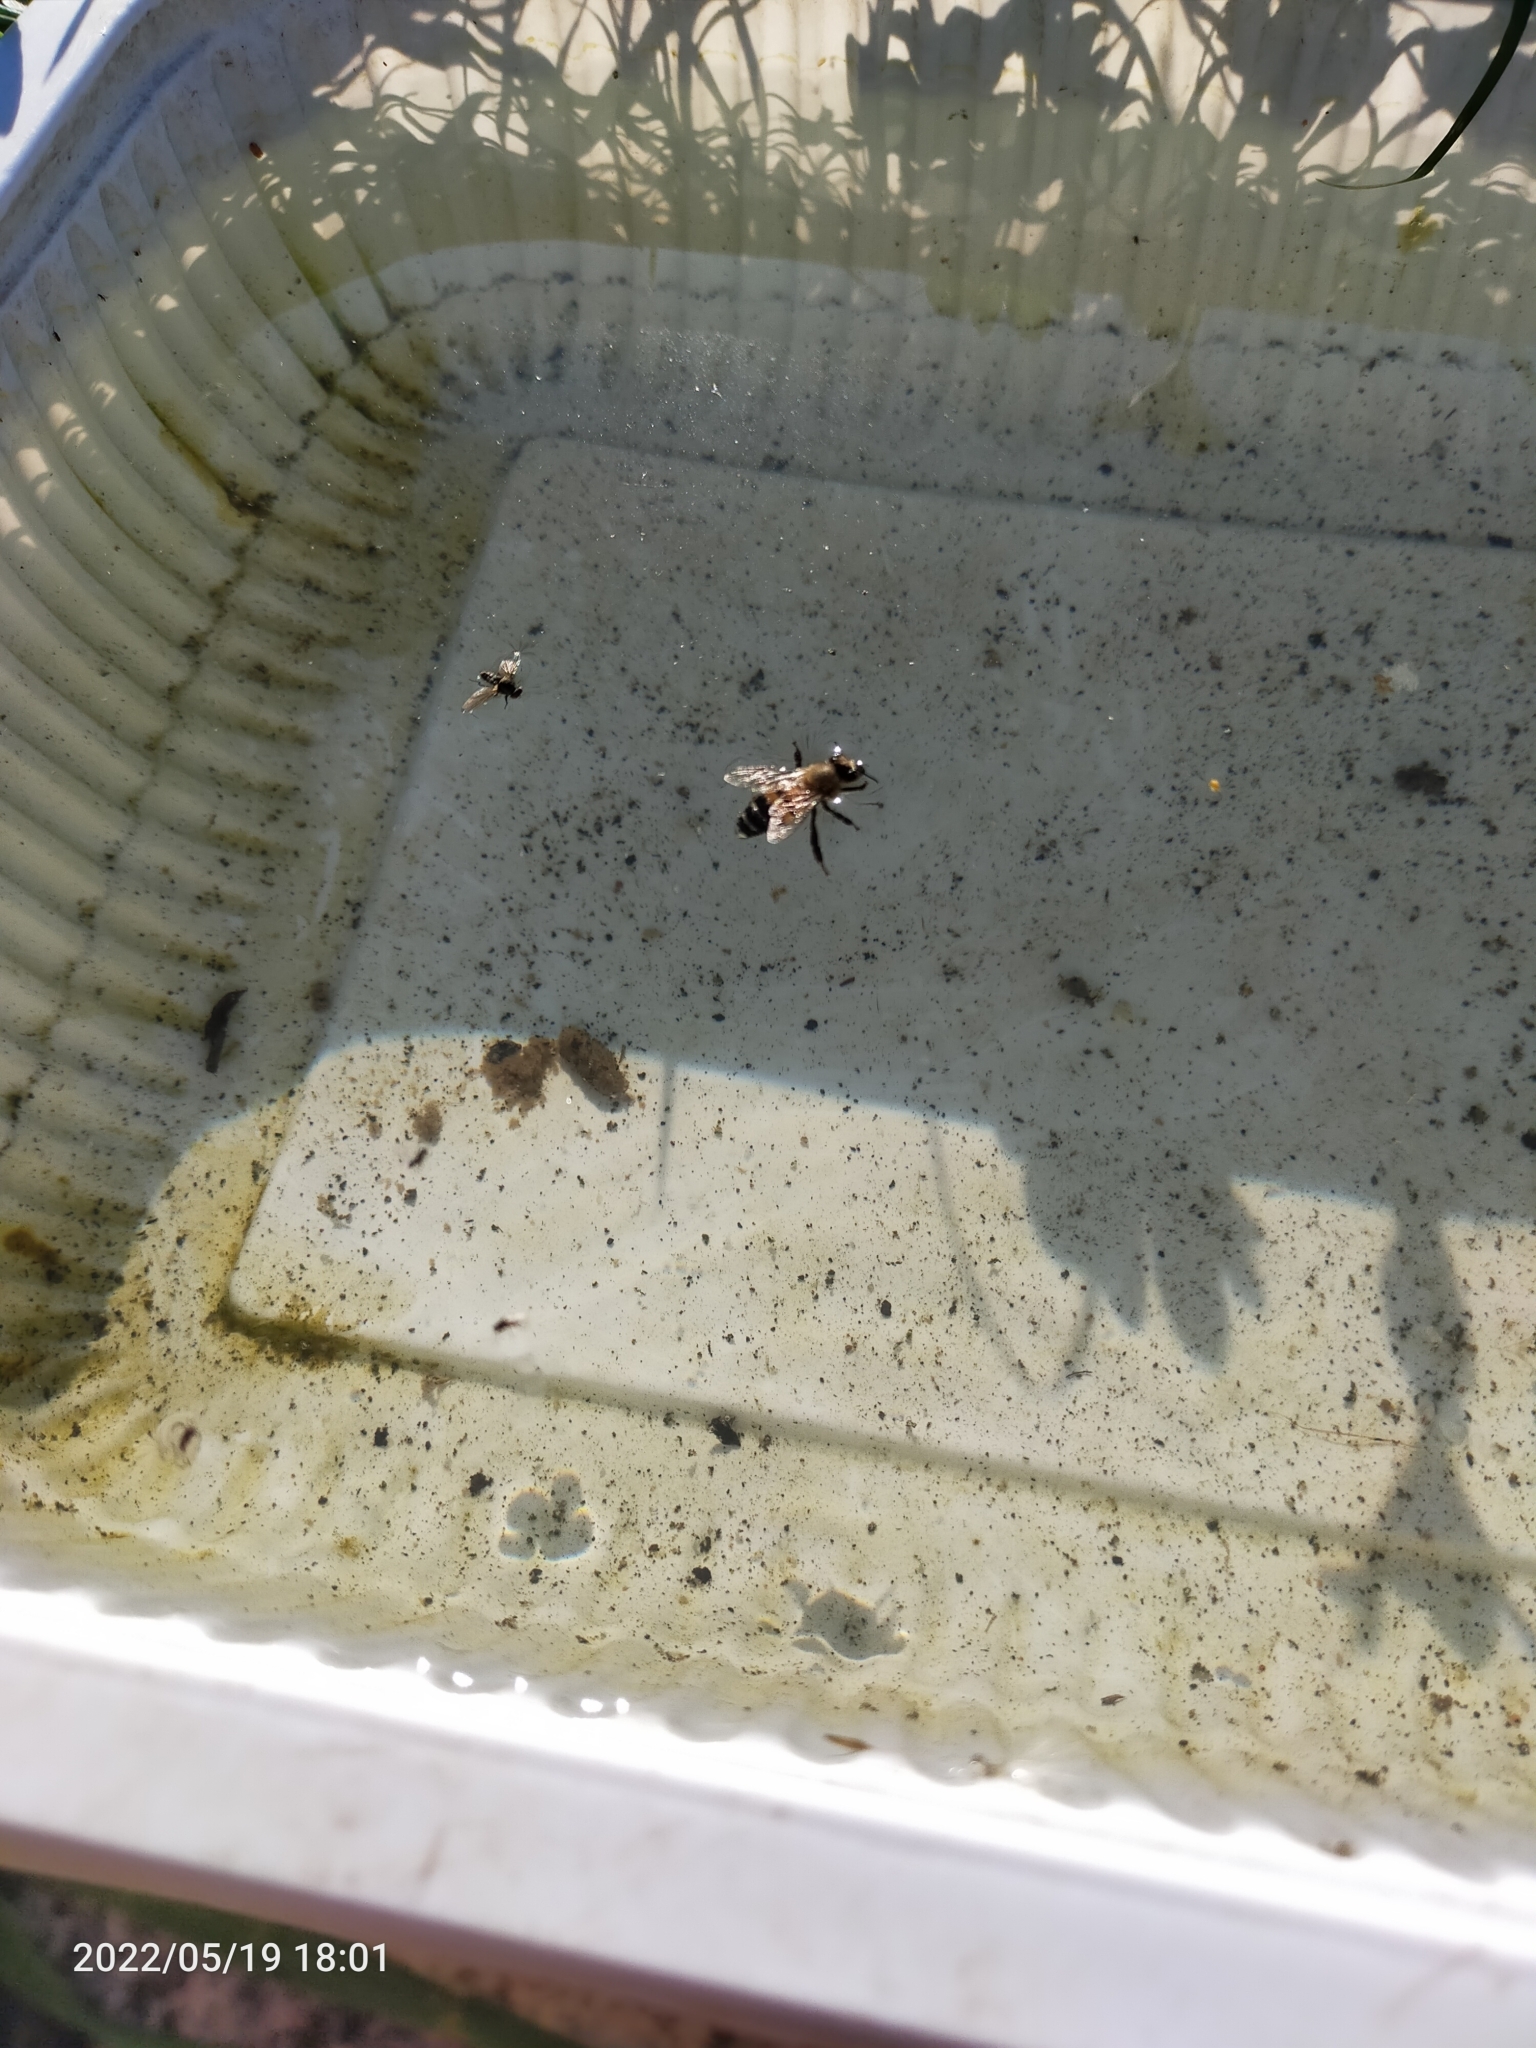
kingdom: Animalia
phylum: Arthropoda
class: Insecta
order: Hymenoptera
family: Apidae
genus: Apis
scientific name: Apis mellifera
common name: Honey bee
